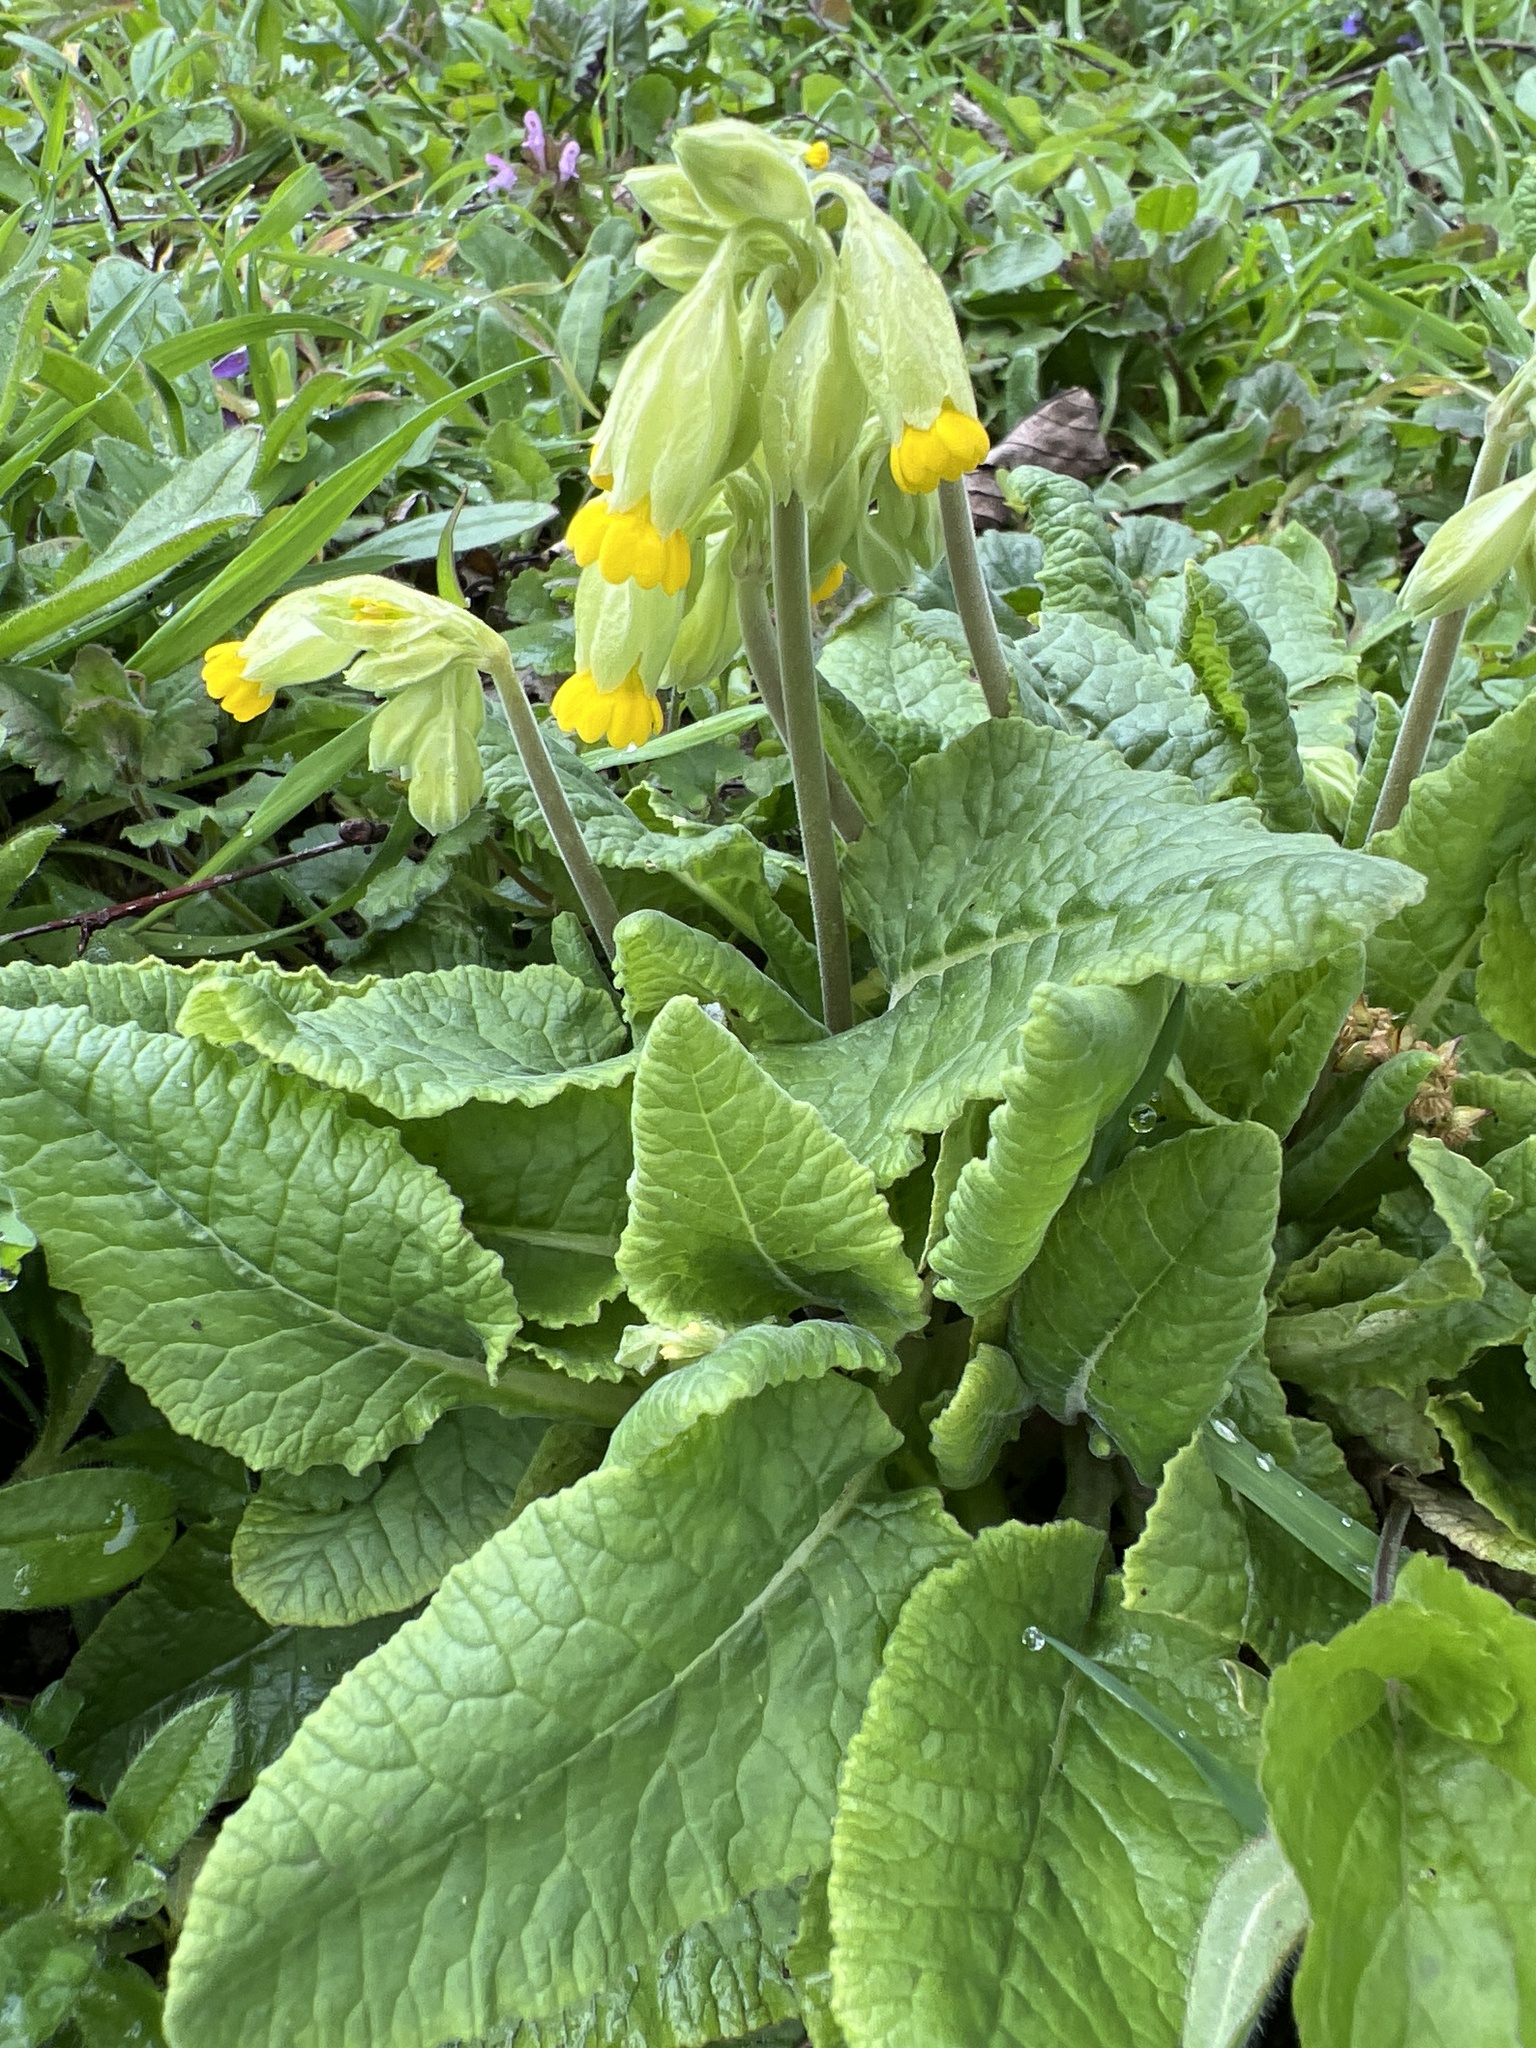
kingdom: Plantae
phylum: Tracheophyta
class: Magnoliopsida
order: Ericales
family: Primulaceae
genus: Primula
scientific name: Primula veris
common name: Cowslip
